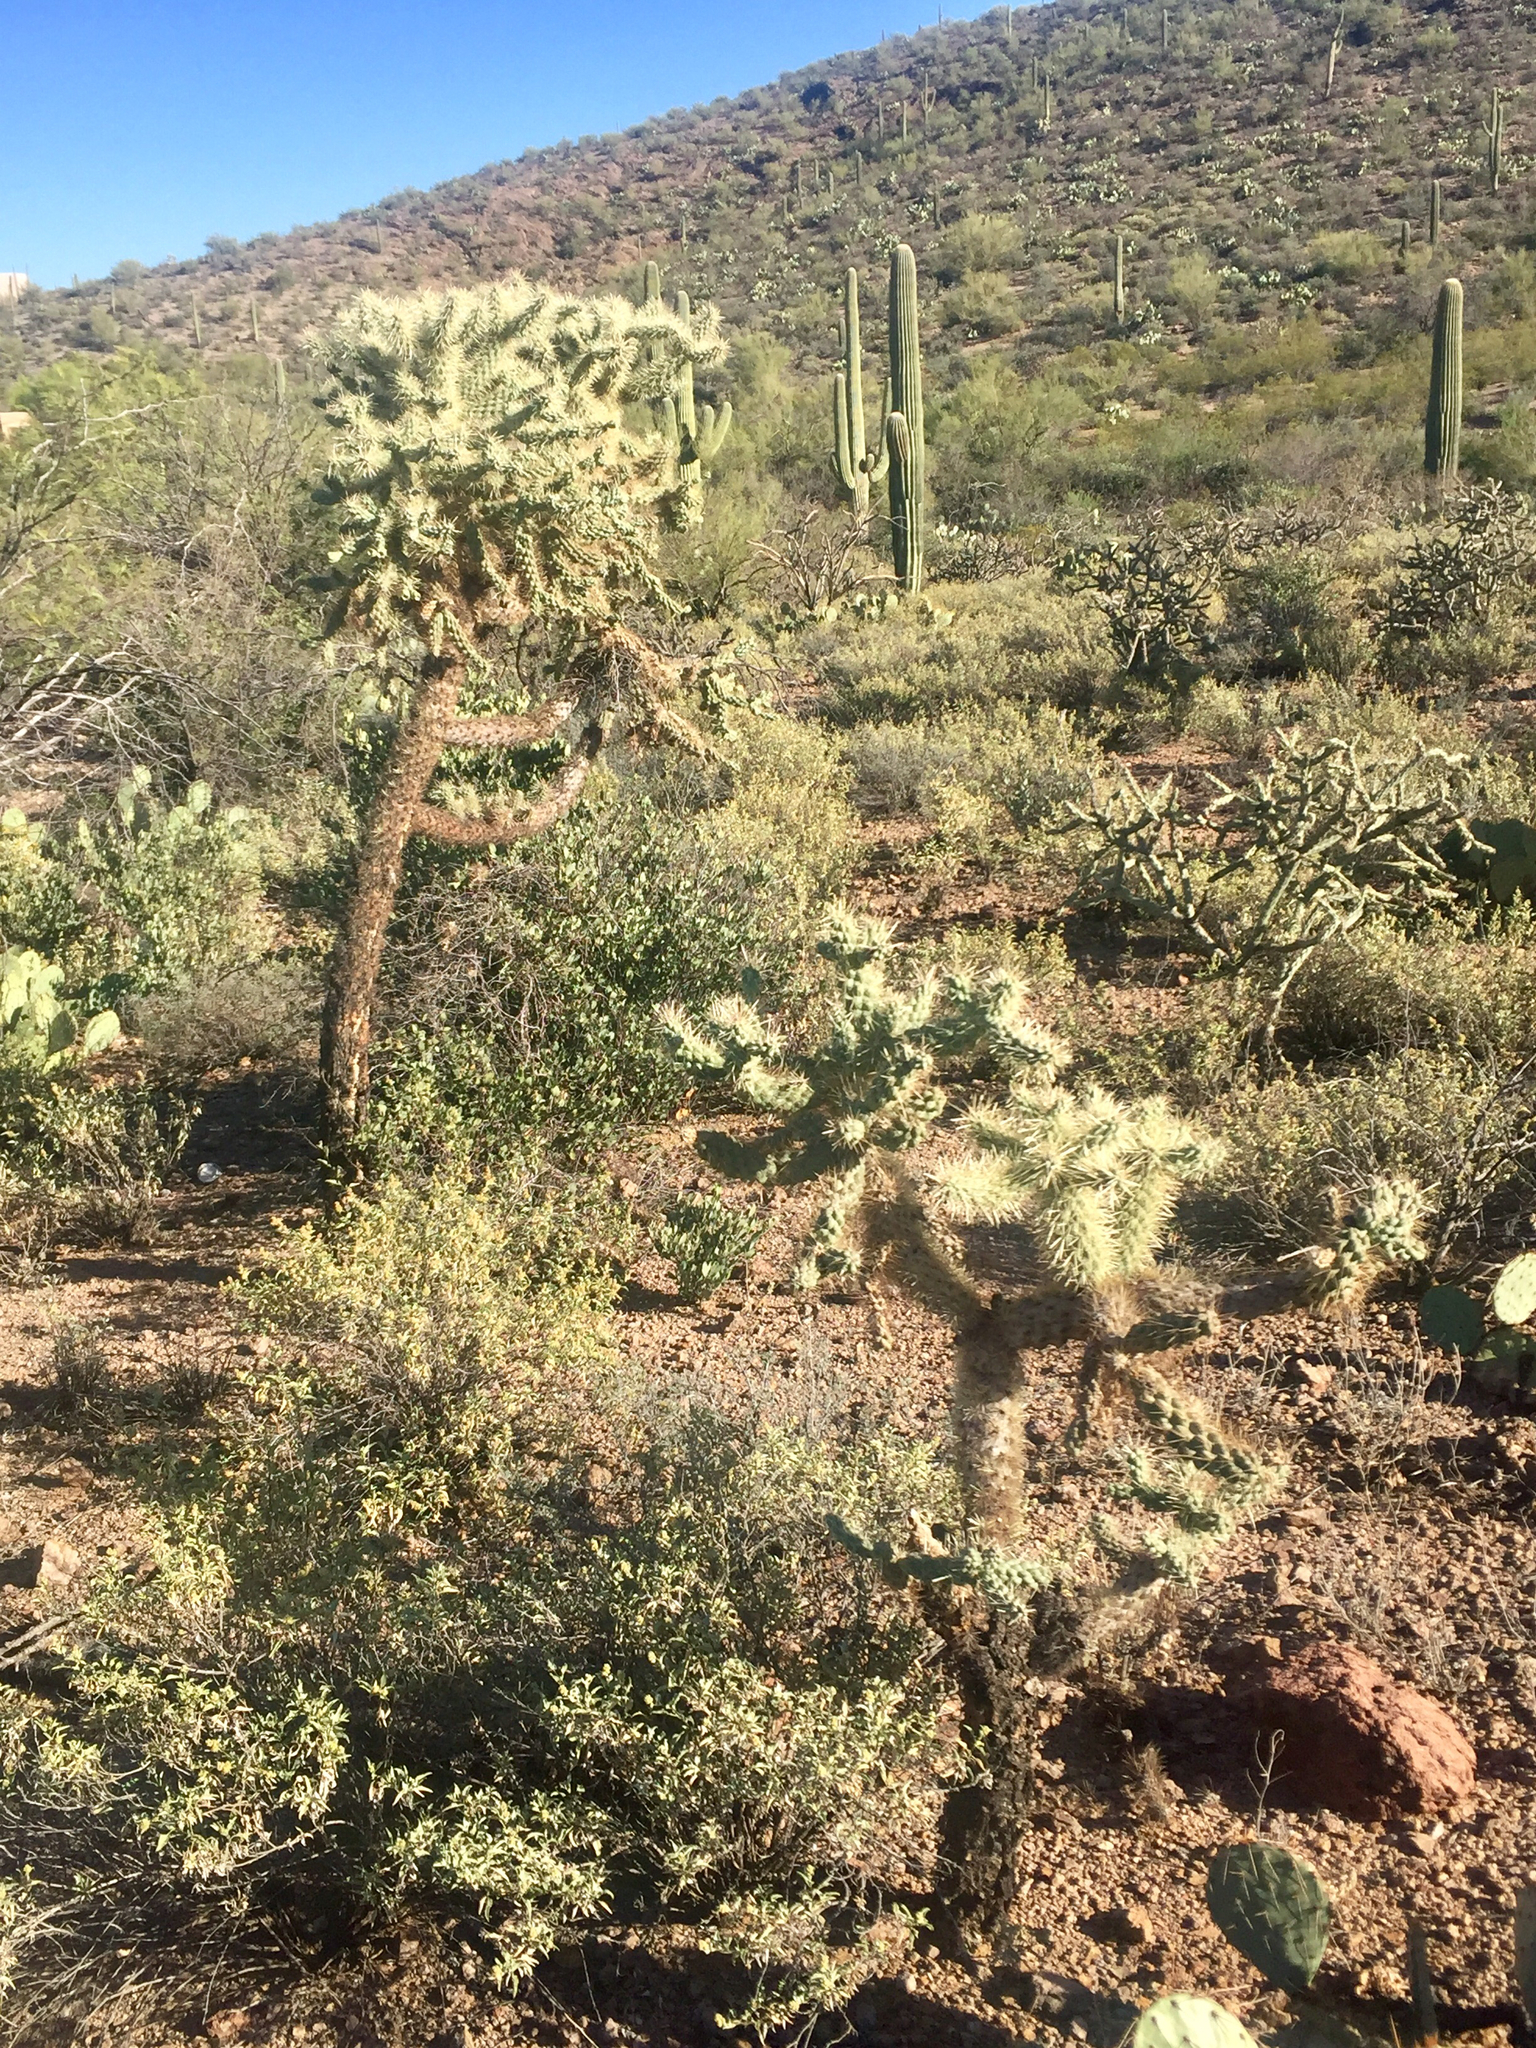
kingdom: Plantae
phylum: Tracheophyta
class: Magnoliopsida
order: Caryophyllales
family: Cactaceae
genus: Cylindropuntia
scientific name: Cylindropuntia fulgida
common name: Jumping cholla
